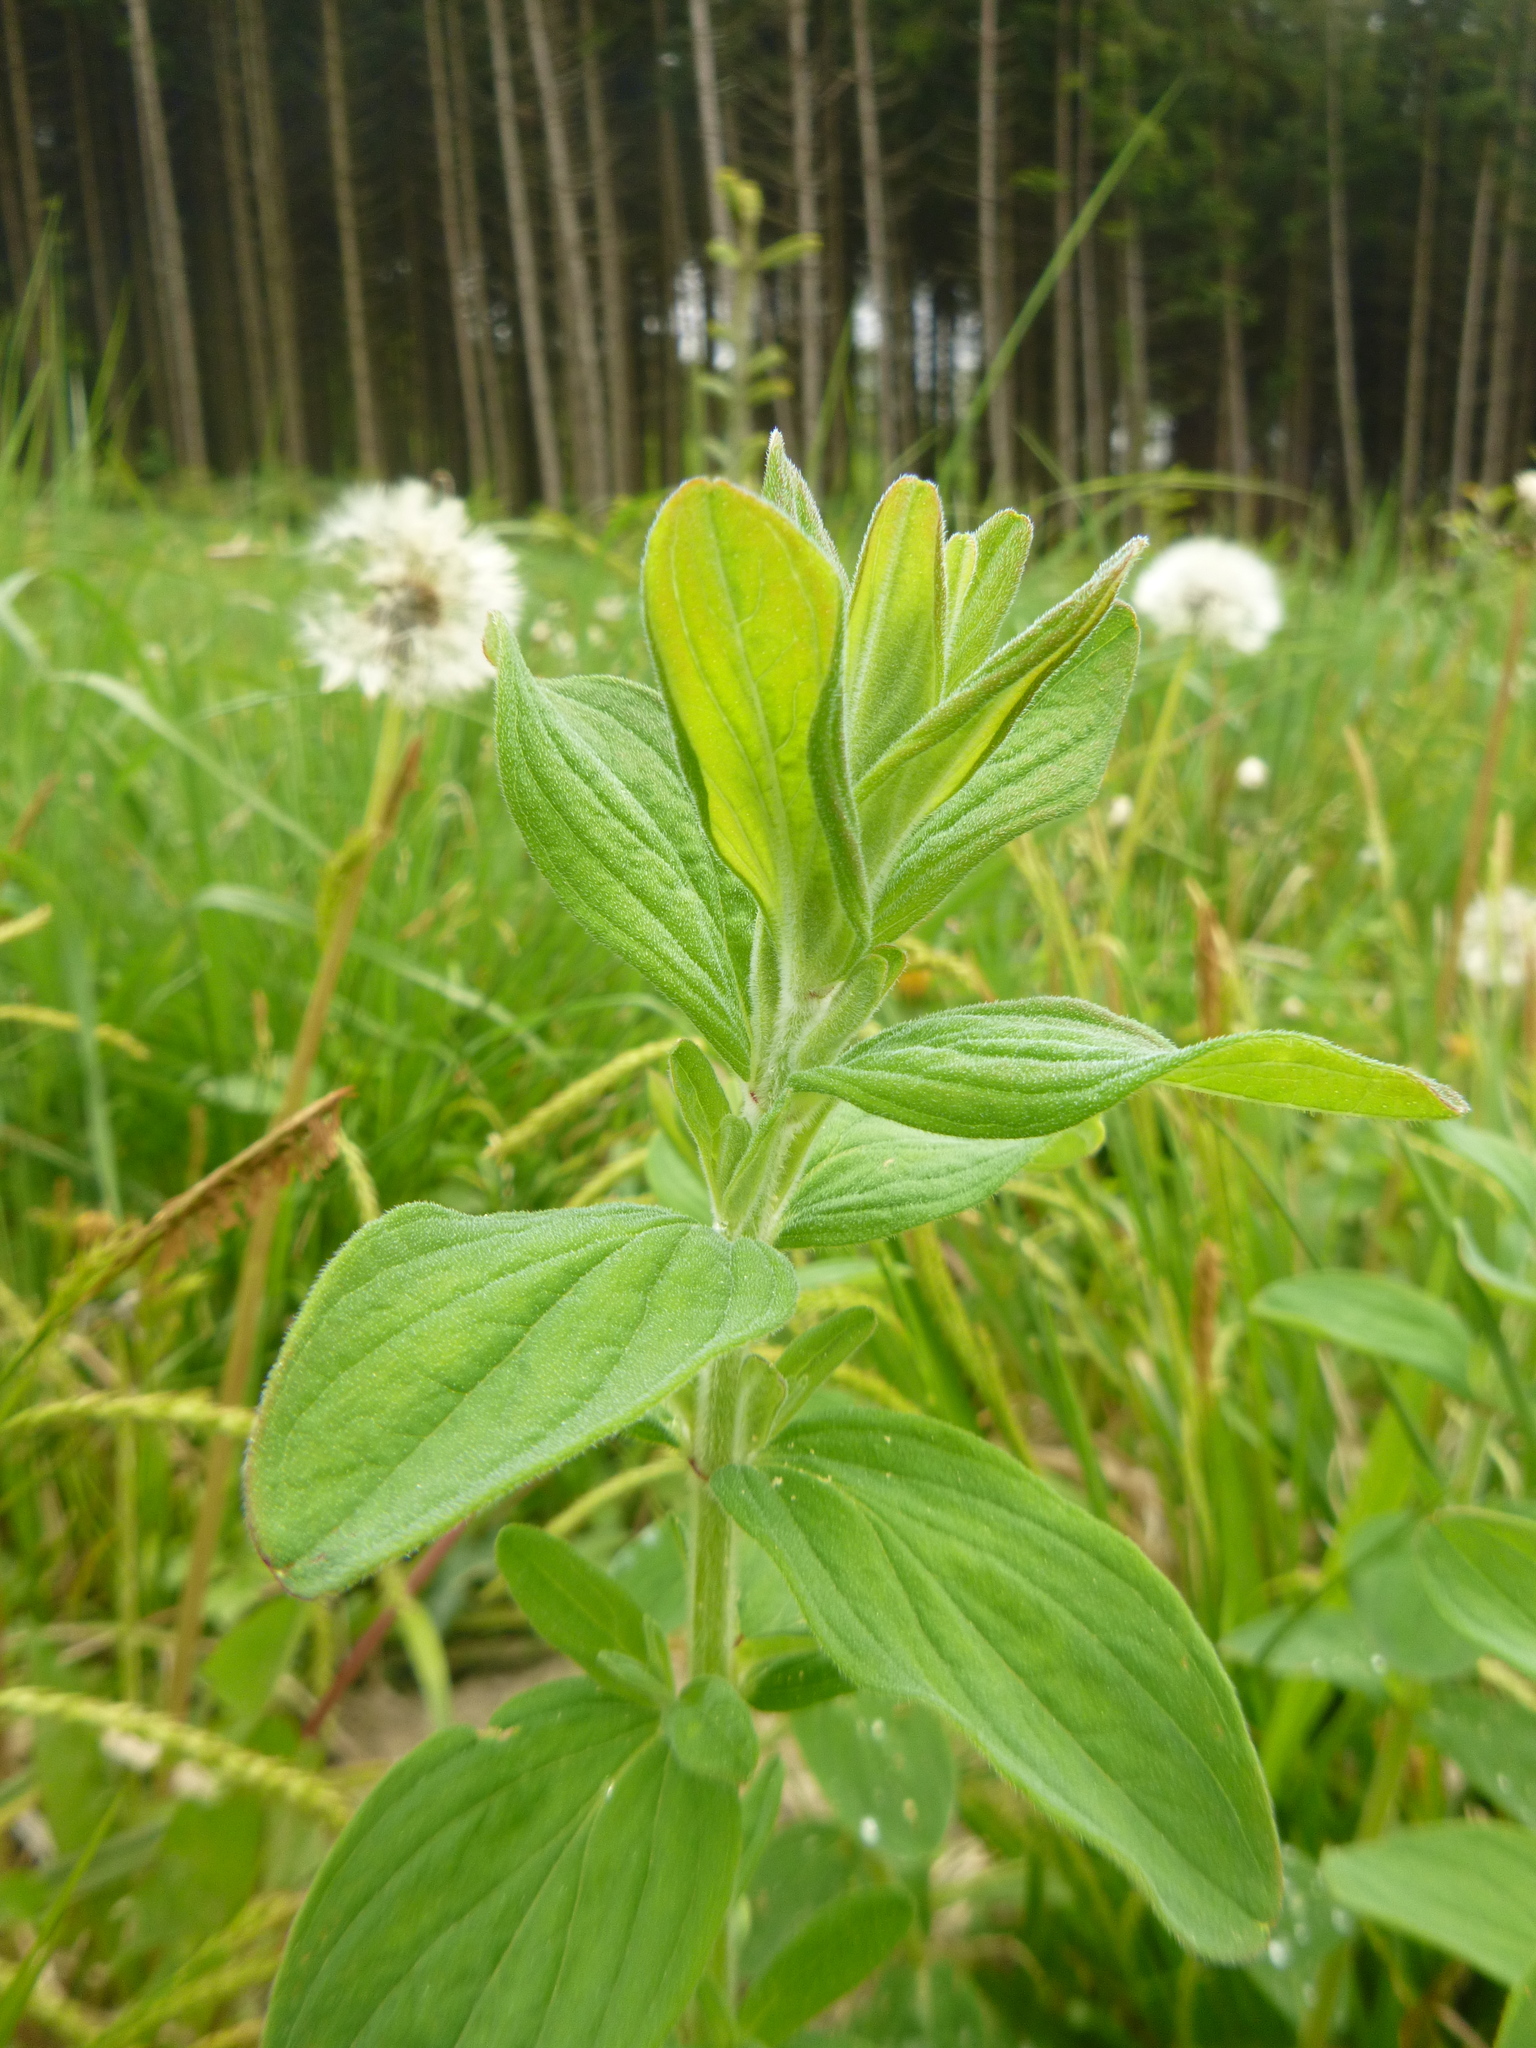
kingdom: Plantae
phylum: Tracheophyta
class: Magnoliopsida
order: Malpighiales
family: Hypericaceae
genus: Hypericum
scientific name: Hypericum hirsutum
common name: Hairy st. john's-wort
